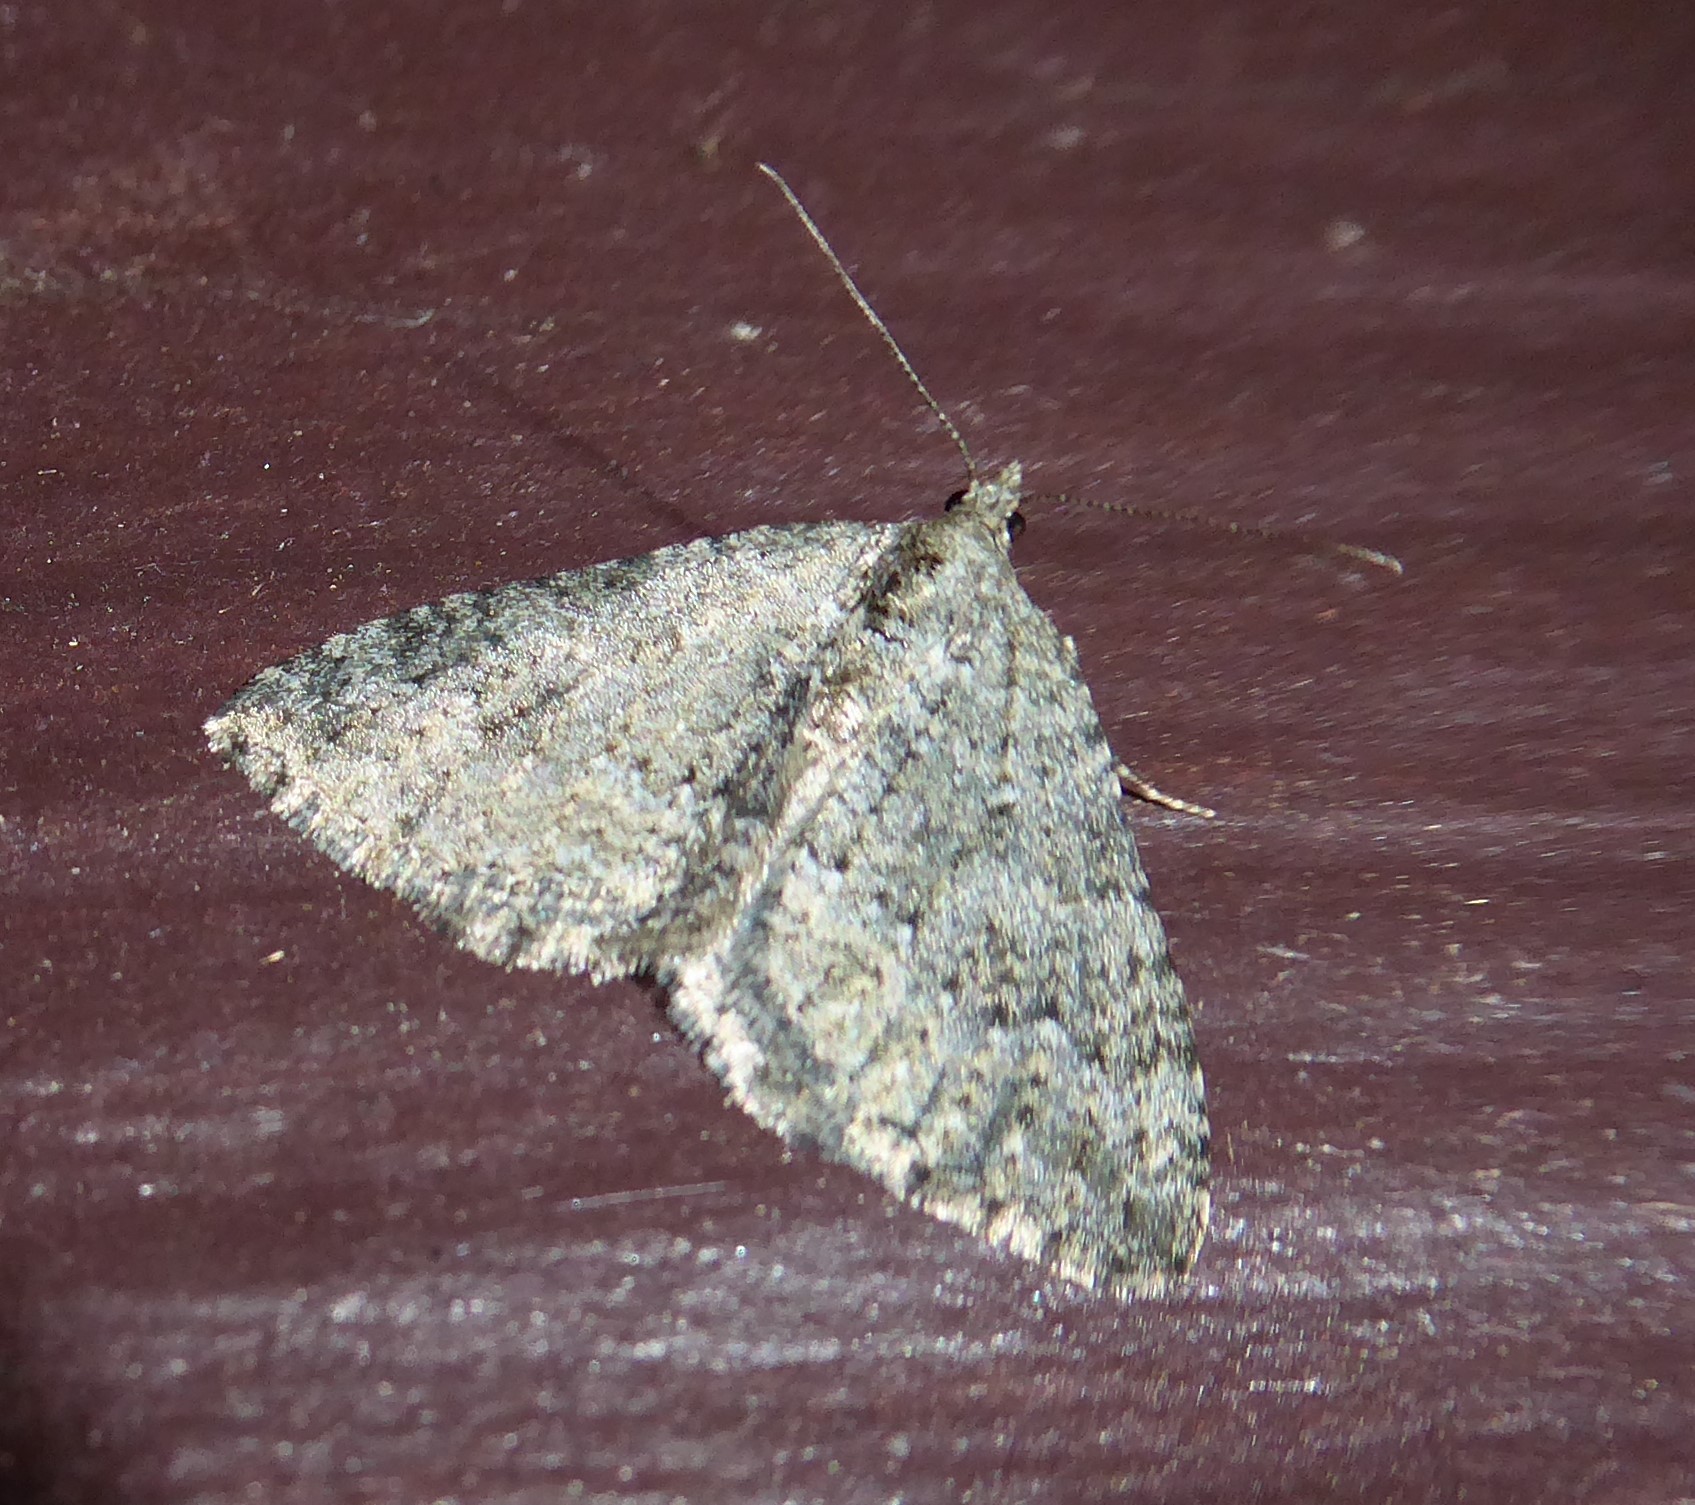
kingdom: Animalia
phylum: Arthropoda
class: Insecta
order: Lepidoptera
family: Geometridae
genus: Helastia
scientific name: Helastia corcularia
